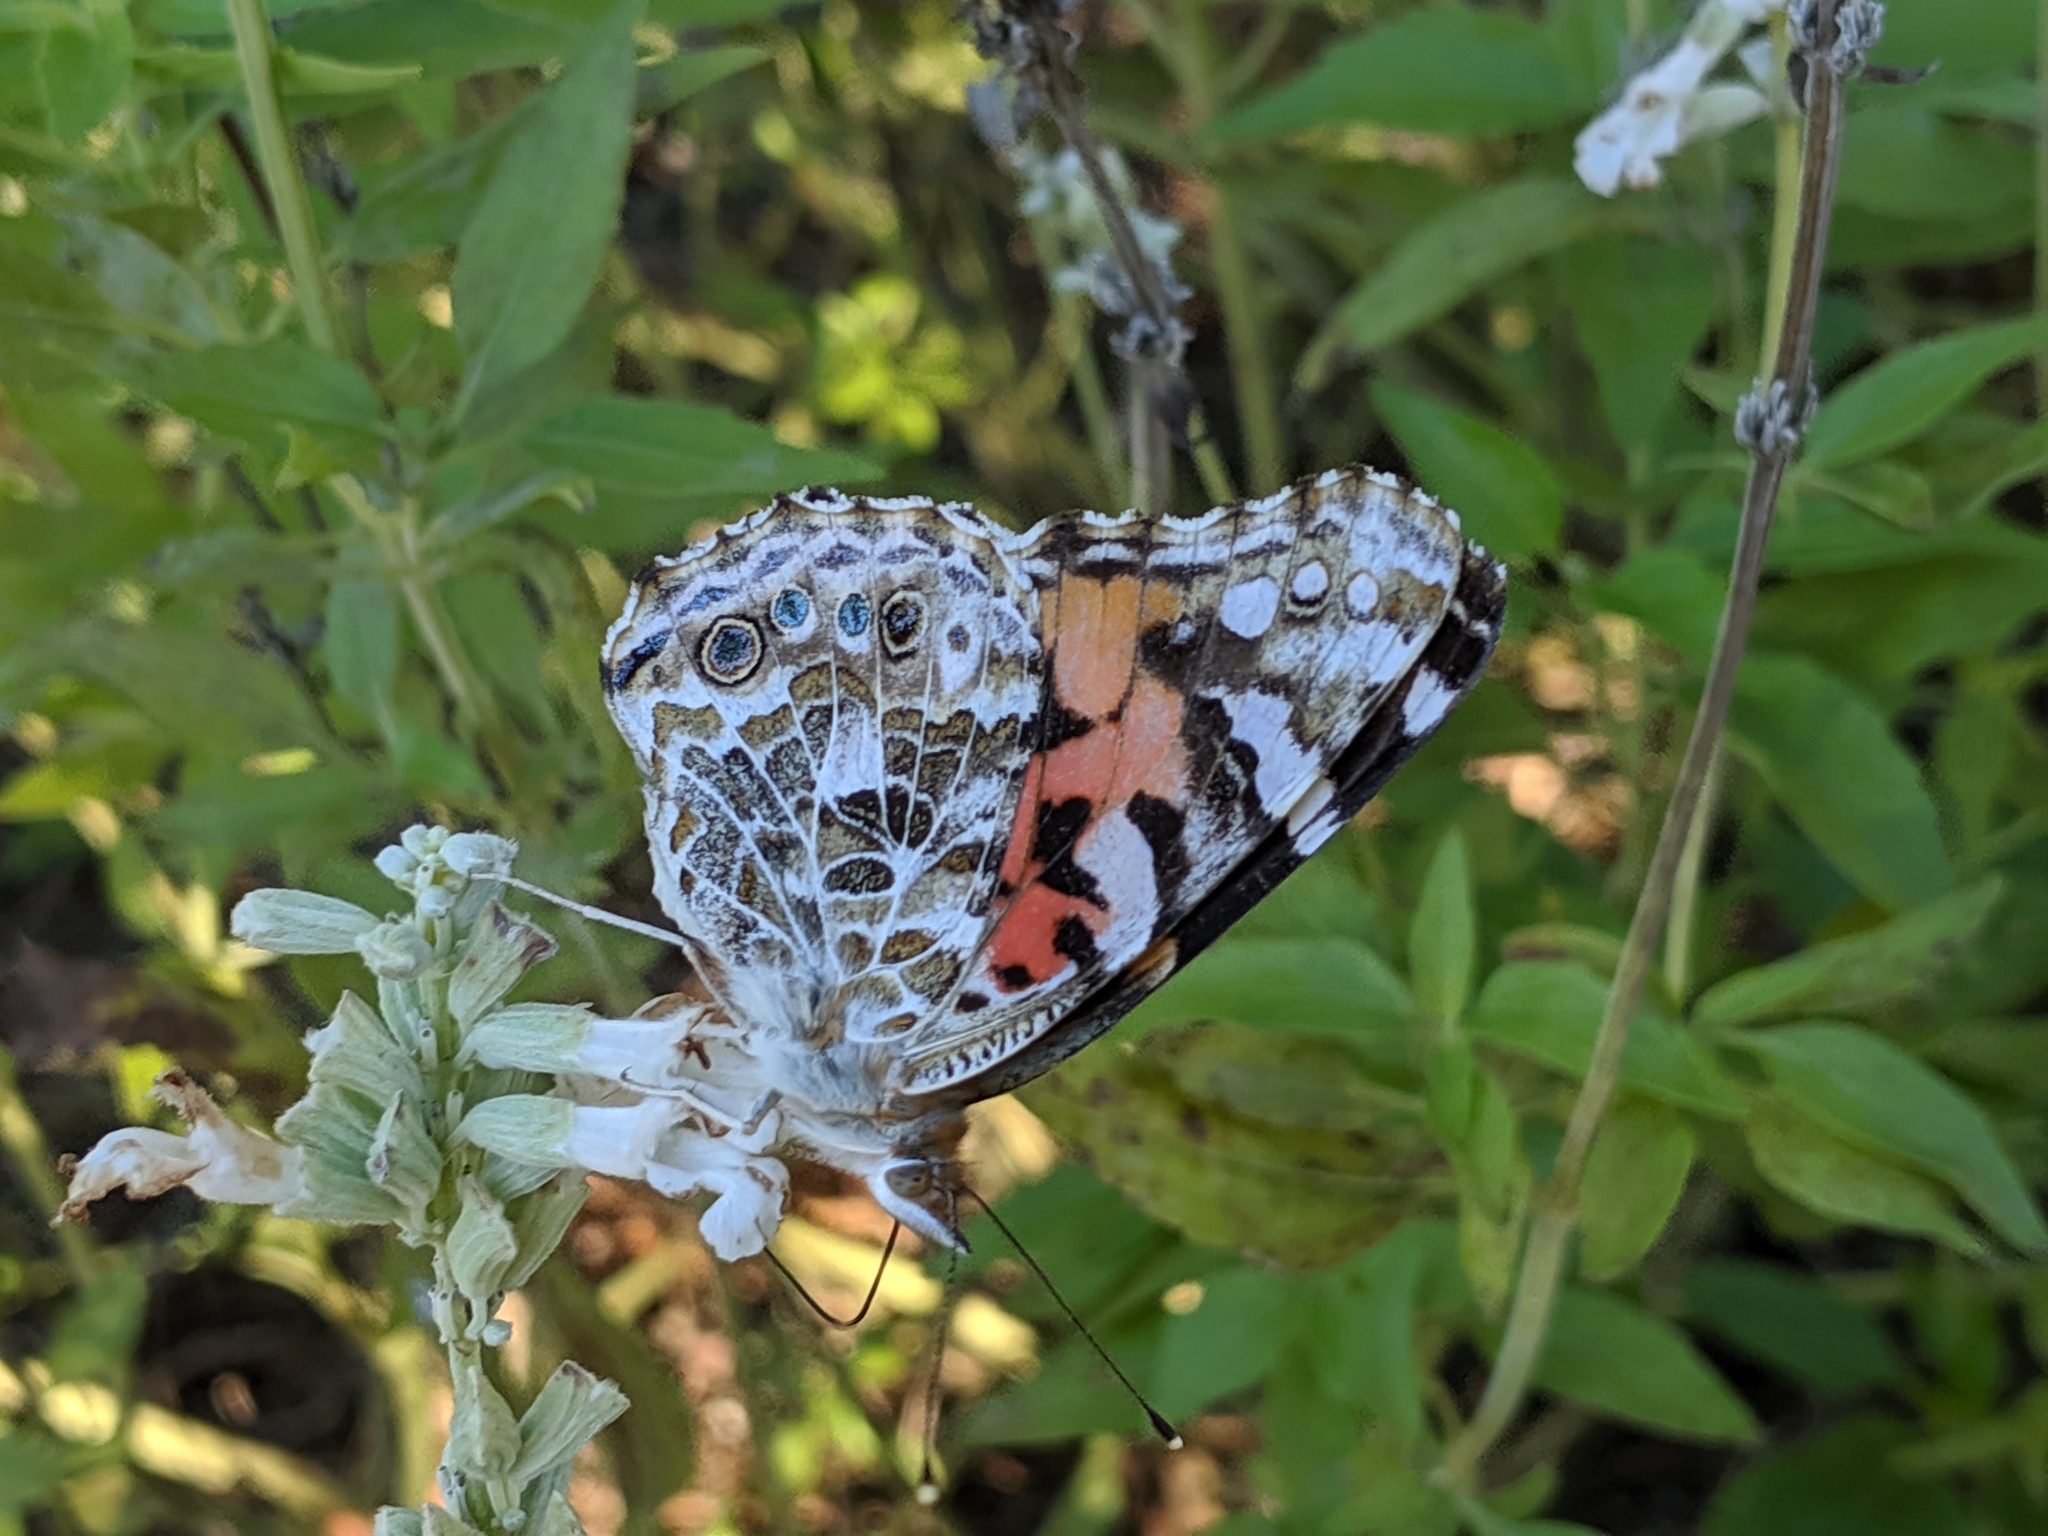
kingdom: Animalia
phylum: Arthropoda
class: Insecta
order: Lepidoptera
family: Nymphalidae
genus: Vanessa
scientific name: Vanessa cardui
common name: Painted lady
